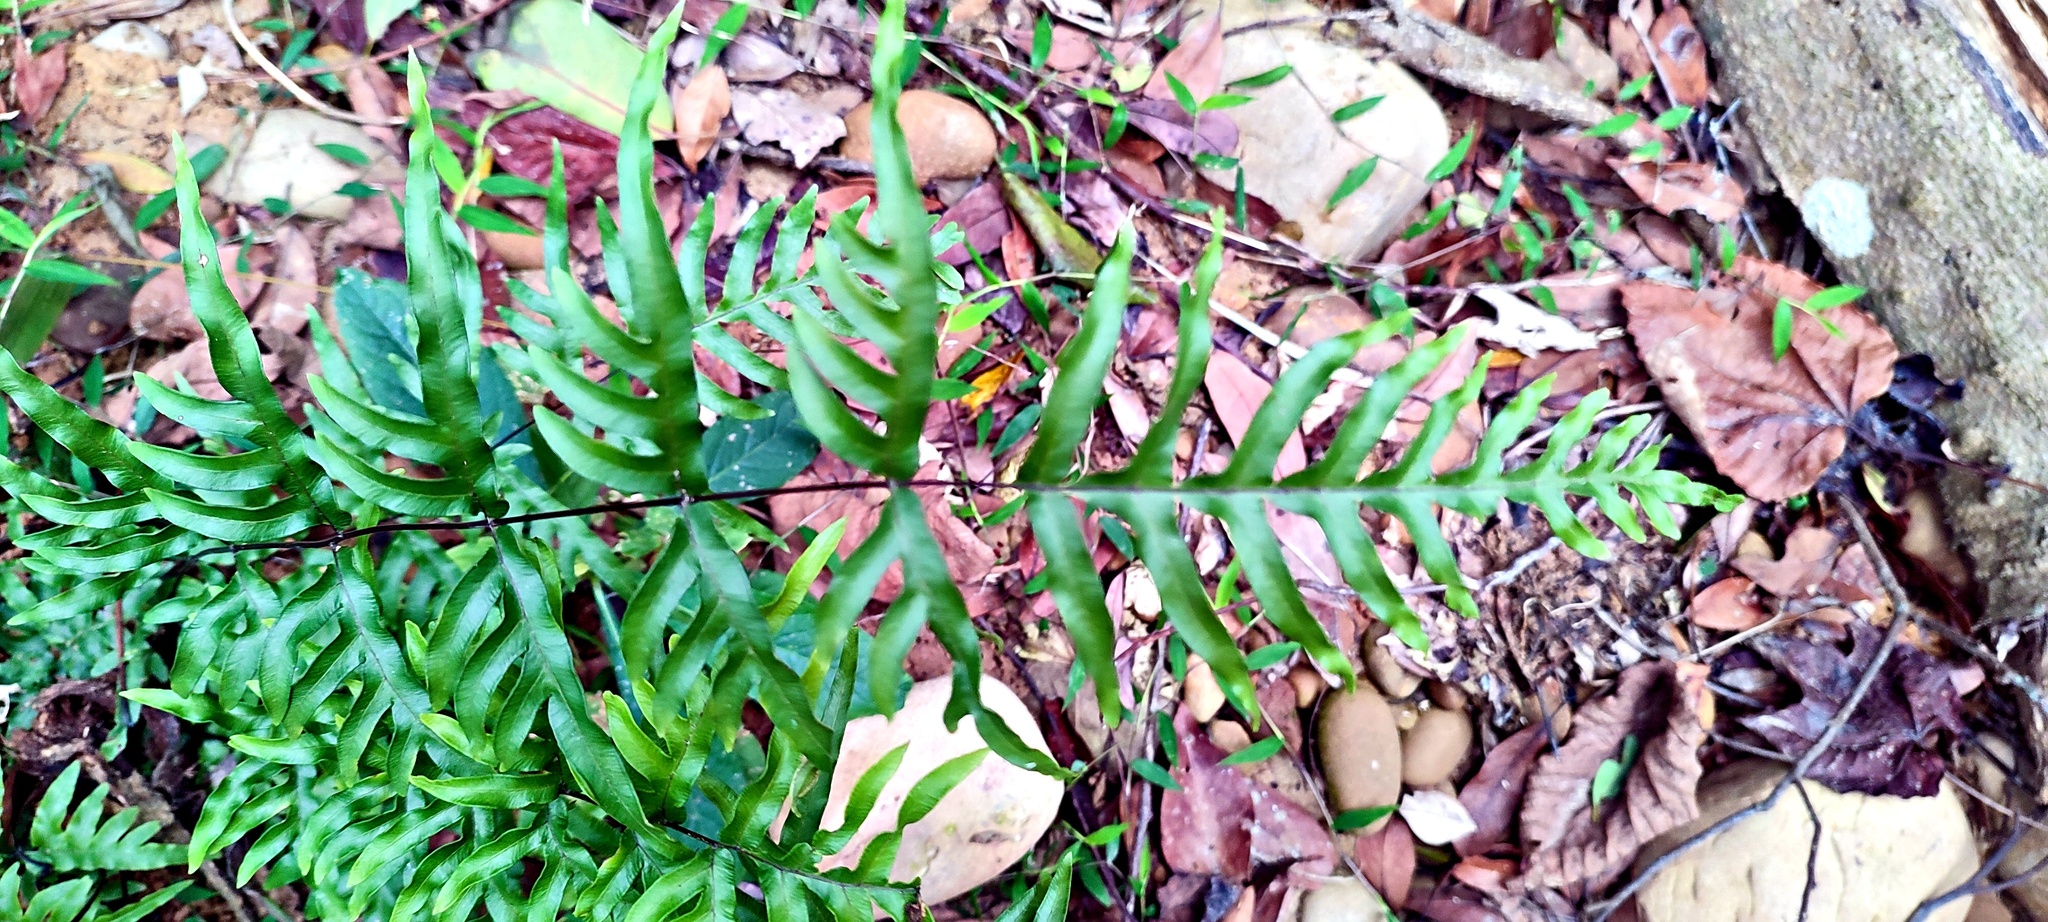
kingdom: Plantae
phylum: Tracheophyta
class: Polypodiopsida
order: Polypodiales
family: Pteridaceae
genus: Pteris
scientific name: Pteris semipinnata
